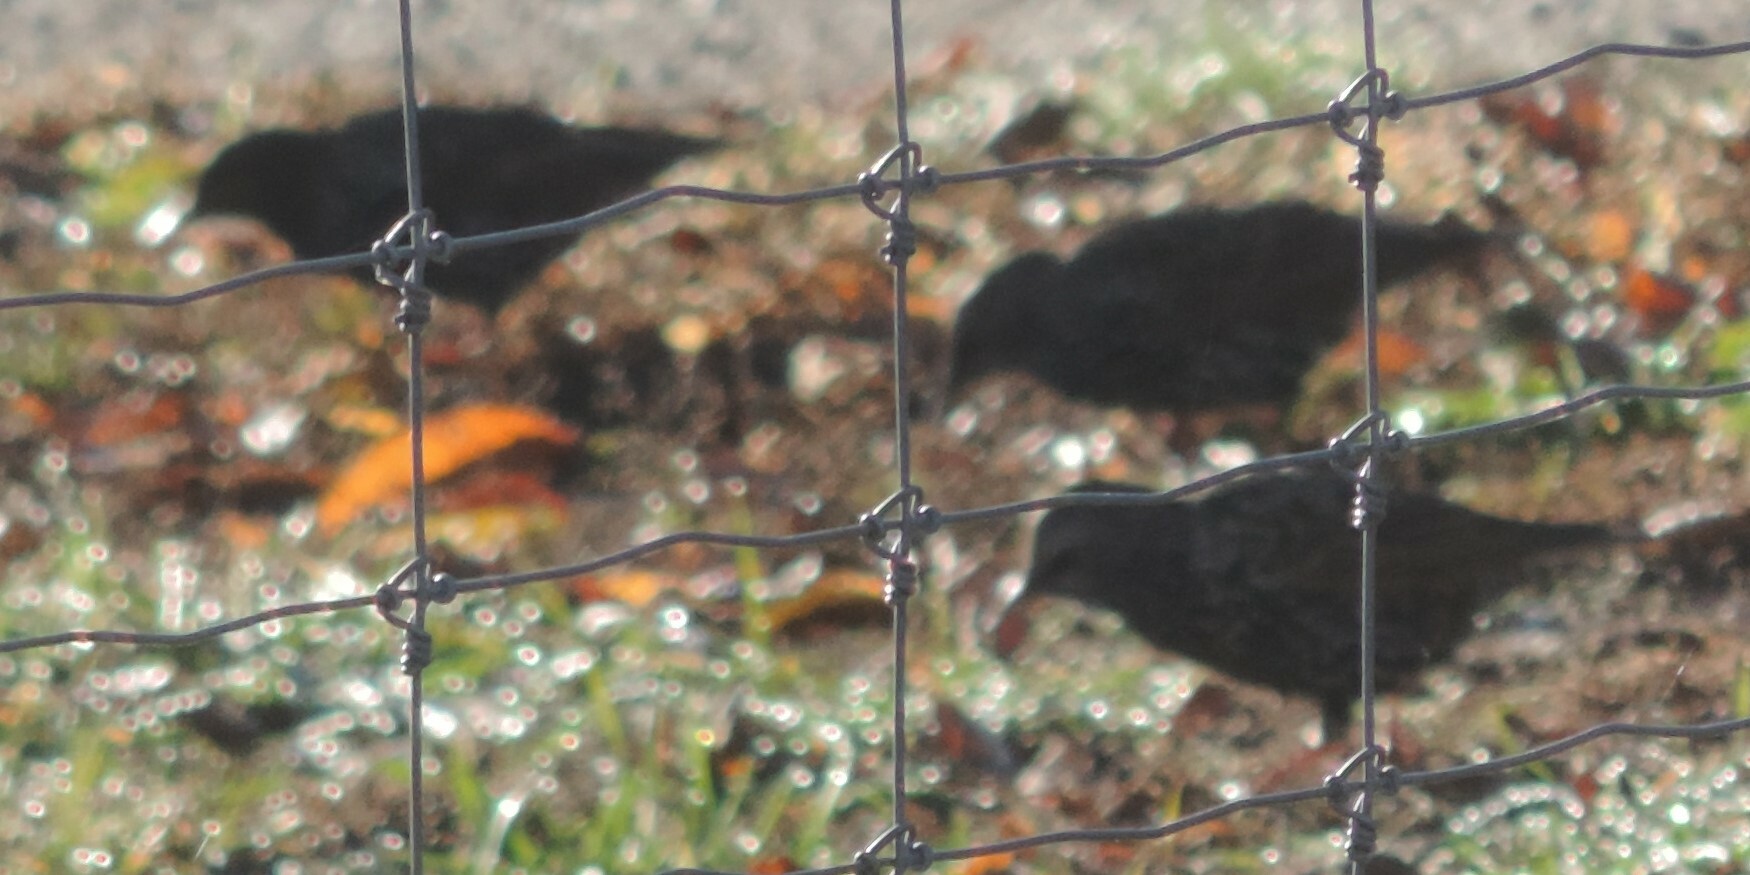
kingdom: Animalia
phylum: Chordata
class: Aves
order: Passeriformes
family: Sturnidae
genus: Sturnus
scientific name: Sturnus vulgaris
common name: Common starling
